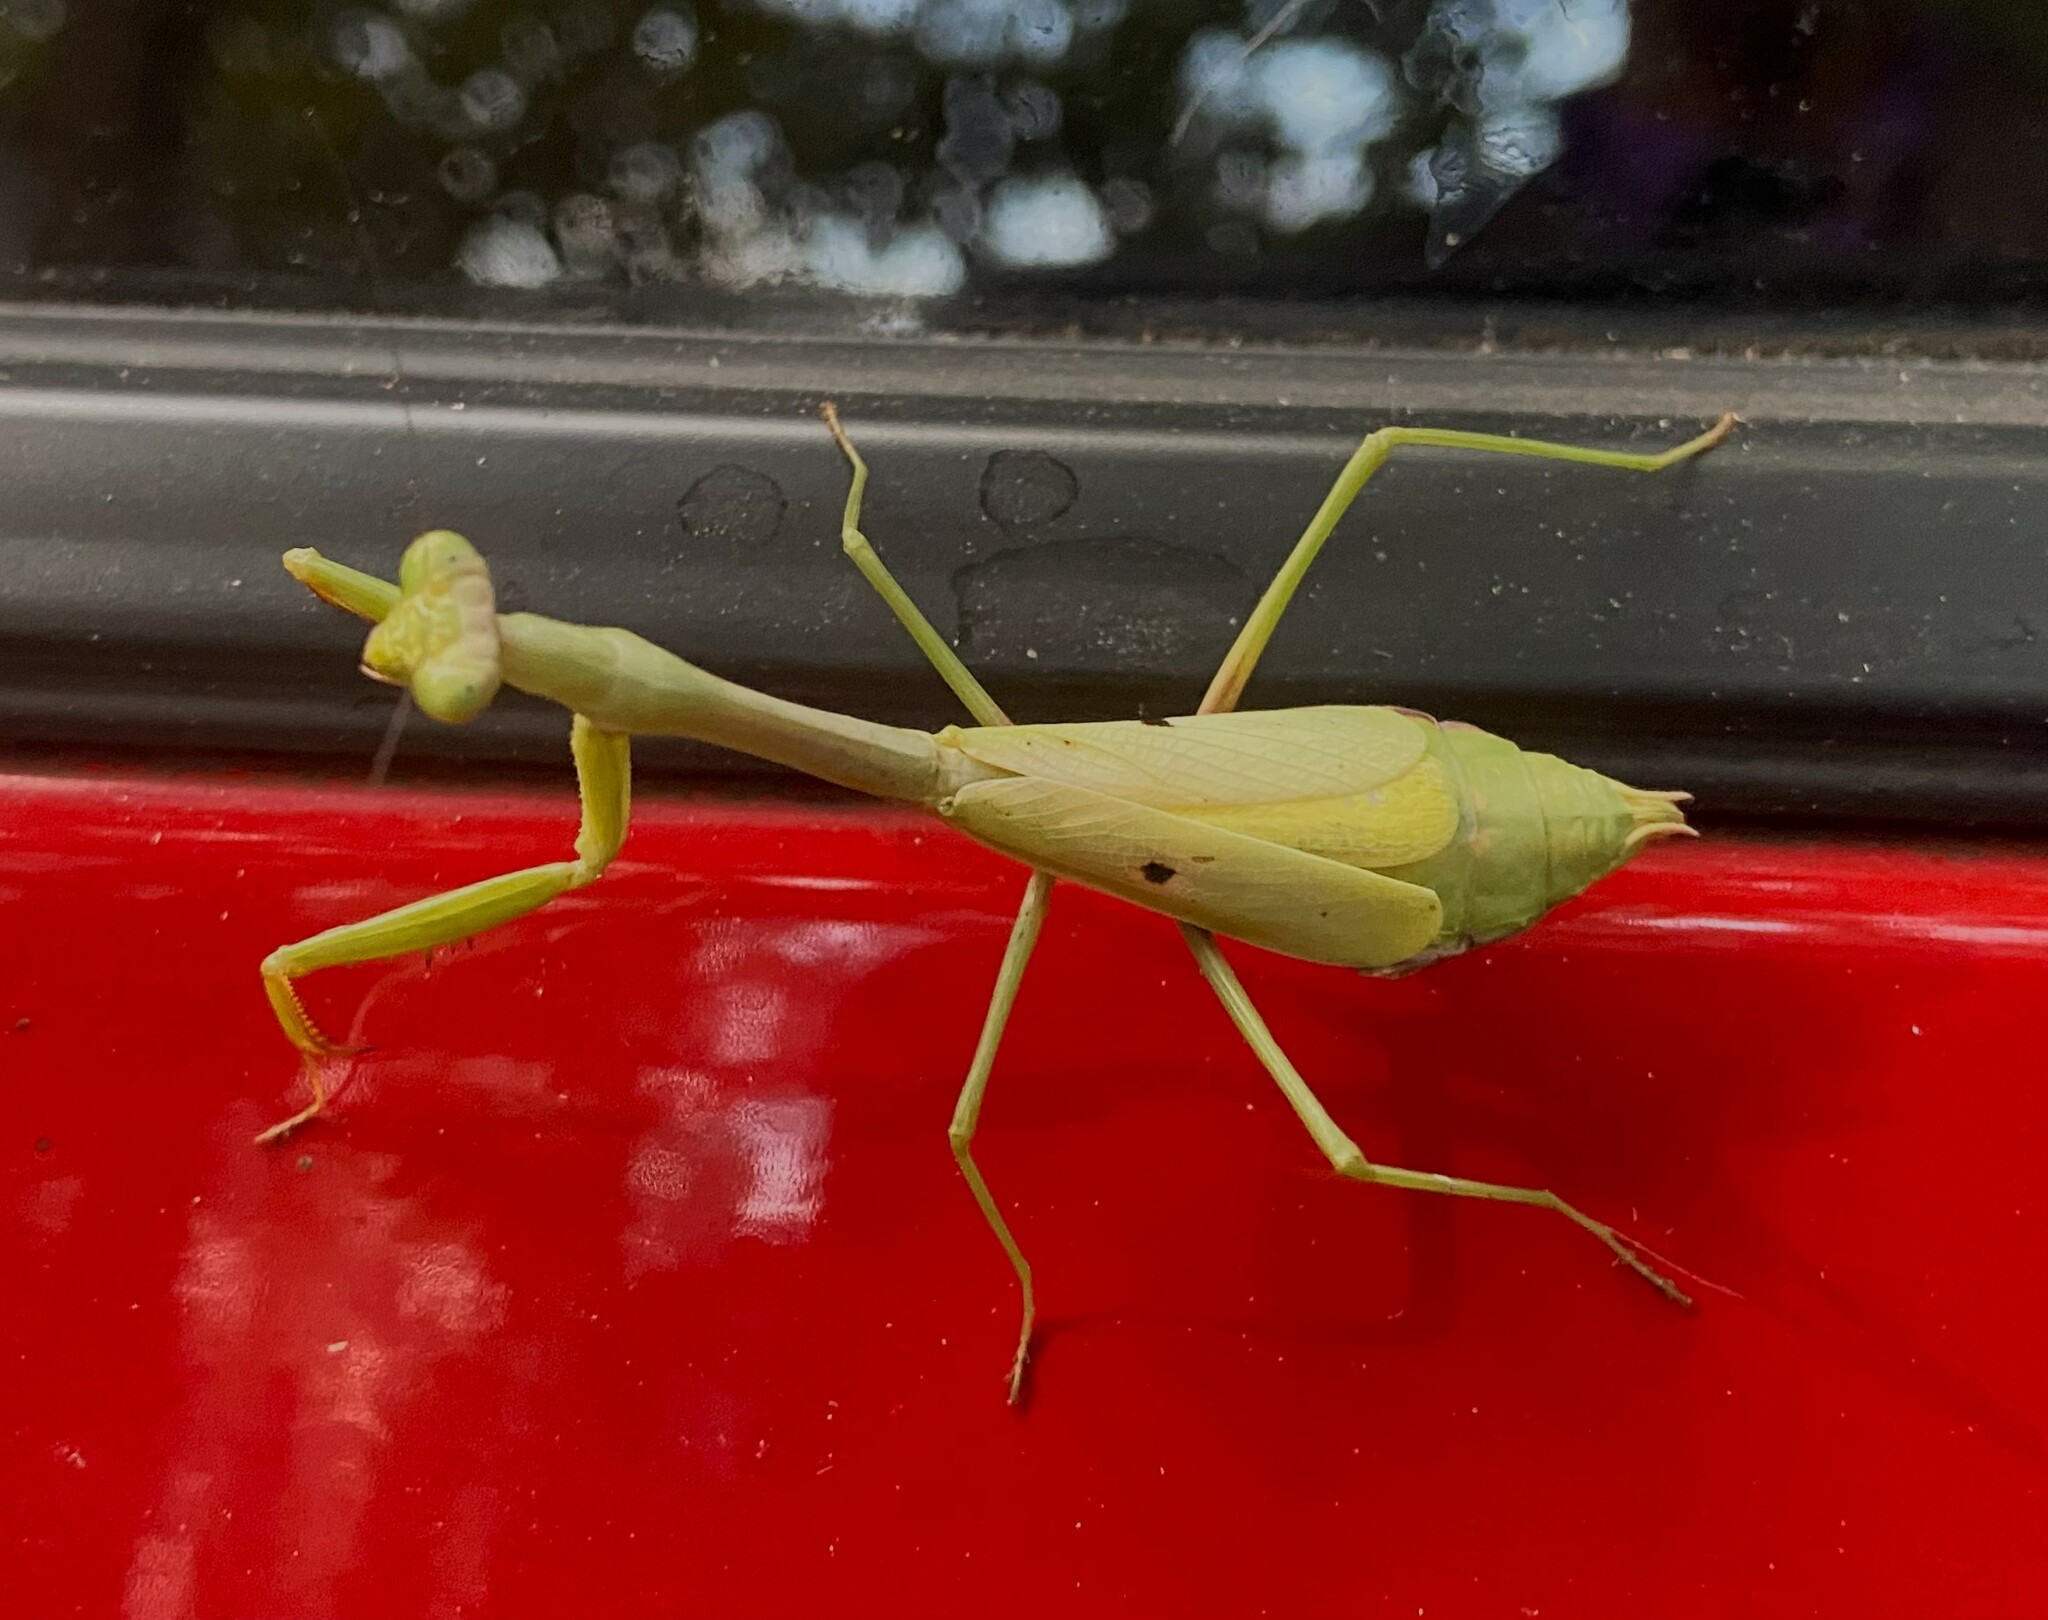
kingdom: Animalia
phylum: Arthropoda
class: Insecta
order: Mantodea
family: Mantidae
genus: Stagmomantis
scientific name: Stagmomantis carolina
